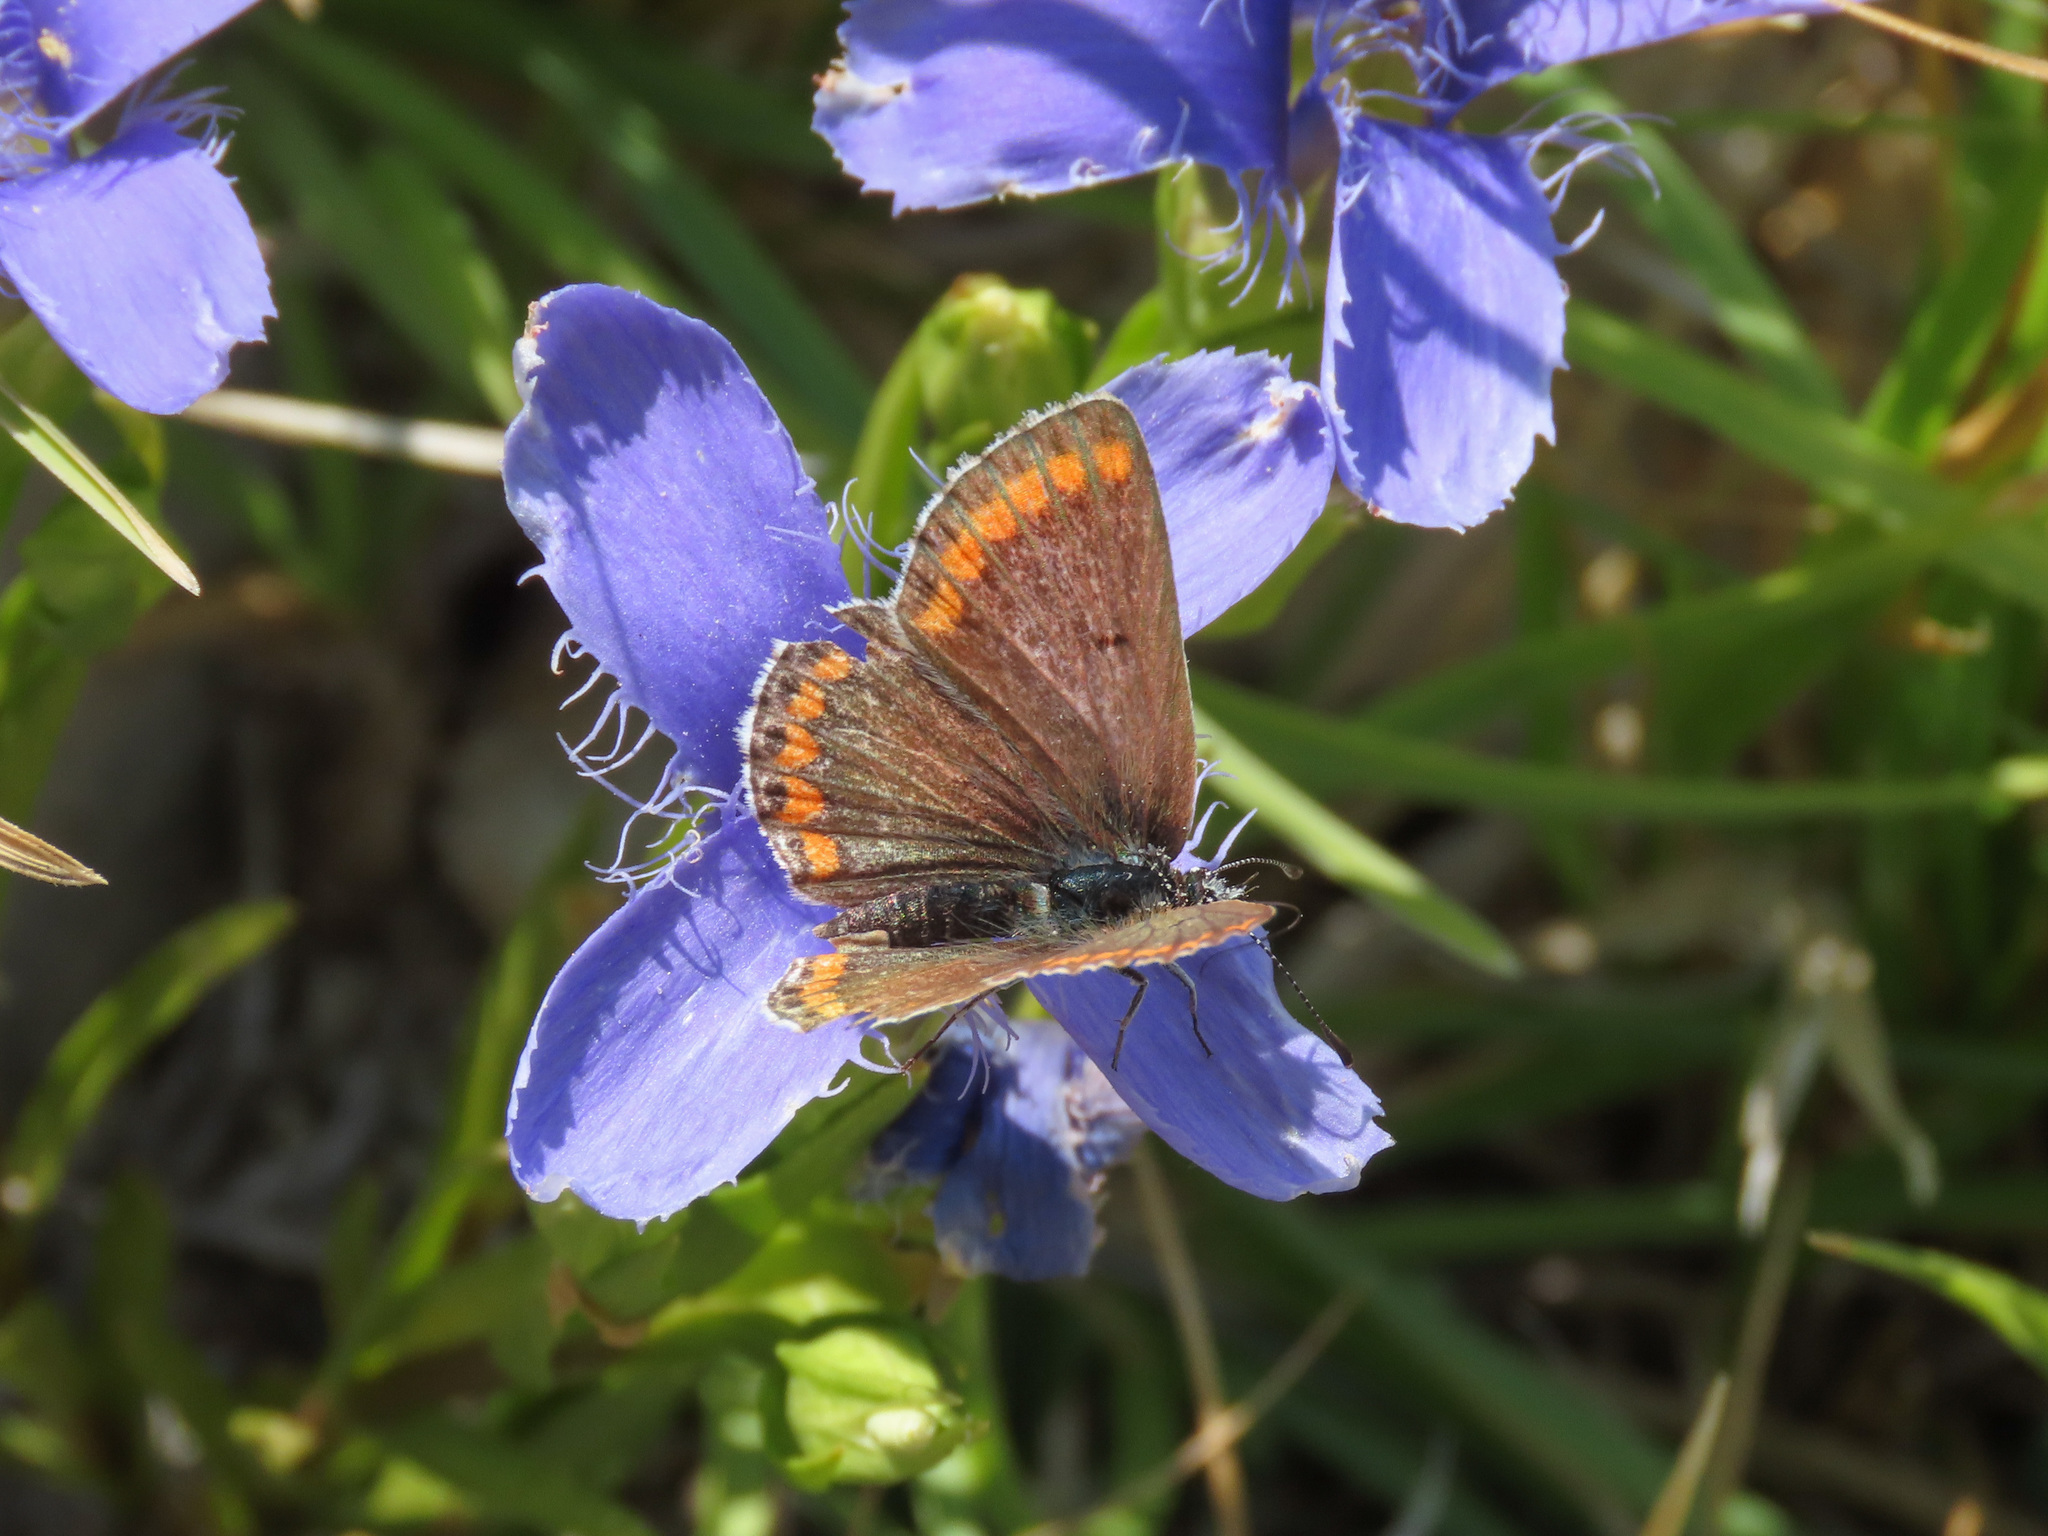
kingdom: Animalia
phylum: Arthropoda
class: Insecta
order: Lepidoptera
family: Lycaenidae
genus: Aricia
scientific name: Aricia agestis
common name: Brown argus
